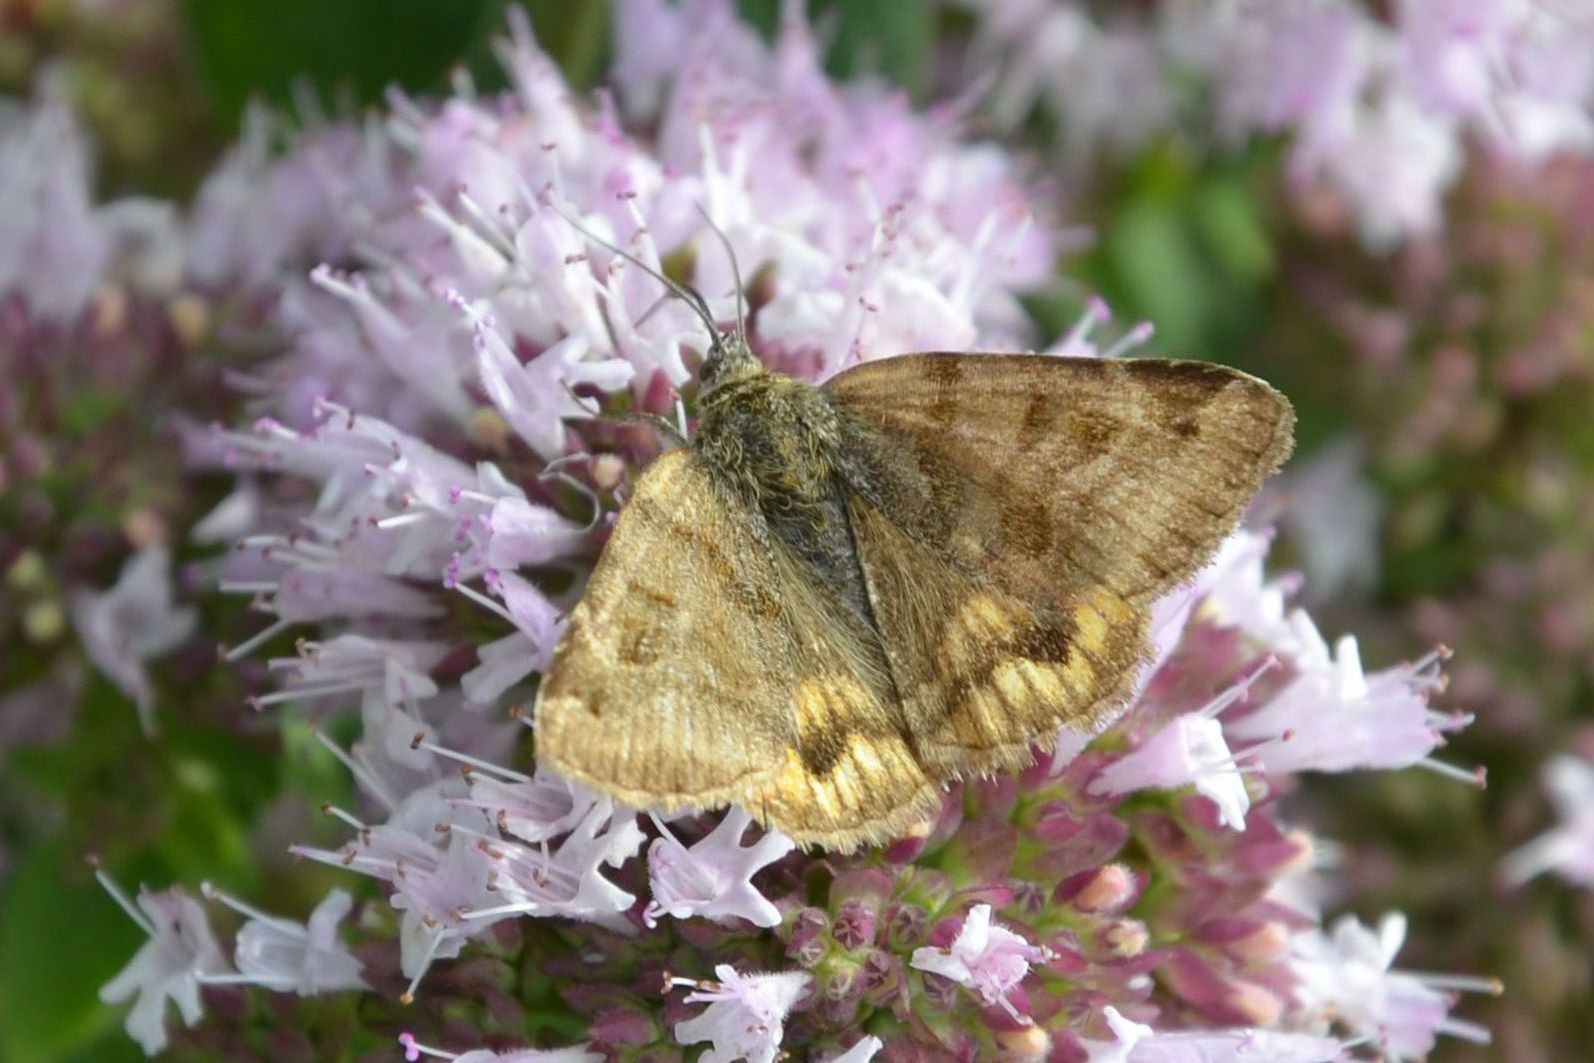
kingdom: Animalia
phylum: Arthropoda
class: Insecta
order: Lepidoptera
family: Erebidae
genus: Euclidia
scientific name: Euclidia glyphica
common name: Burnet companion
